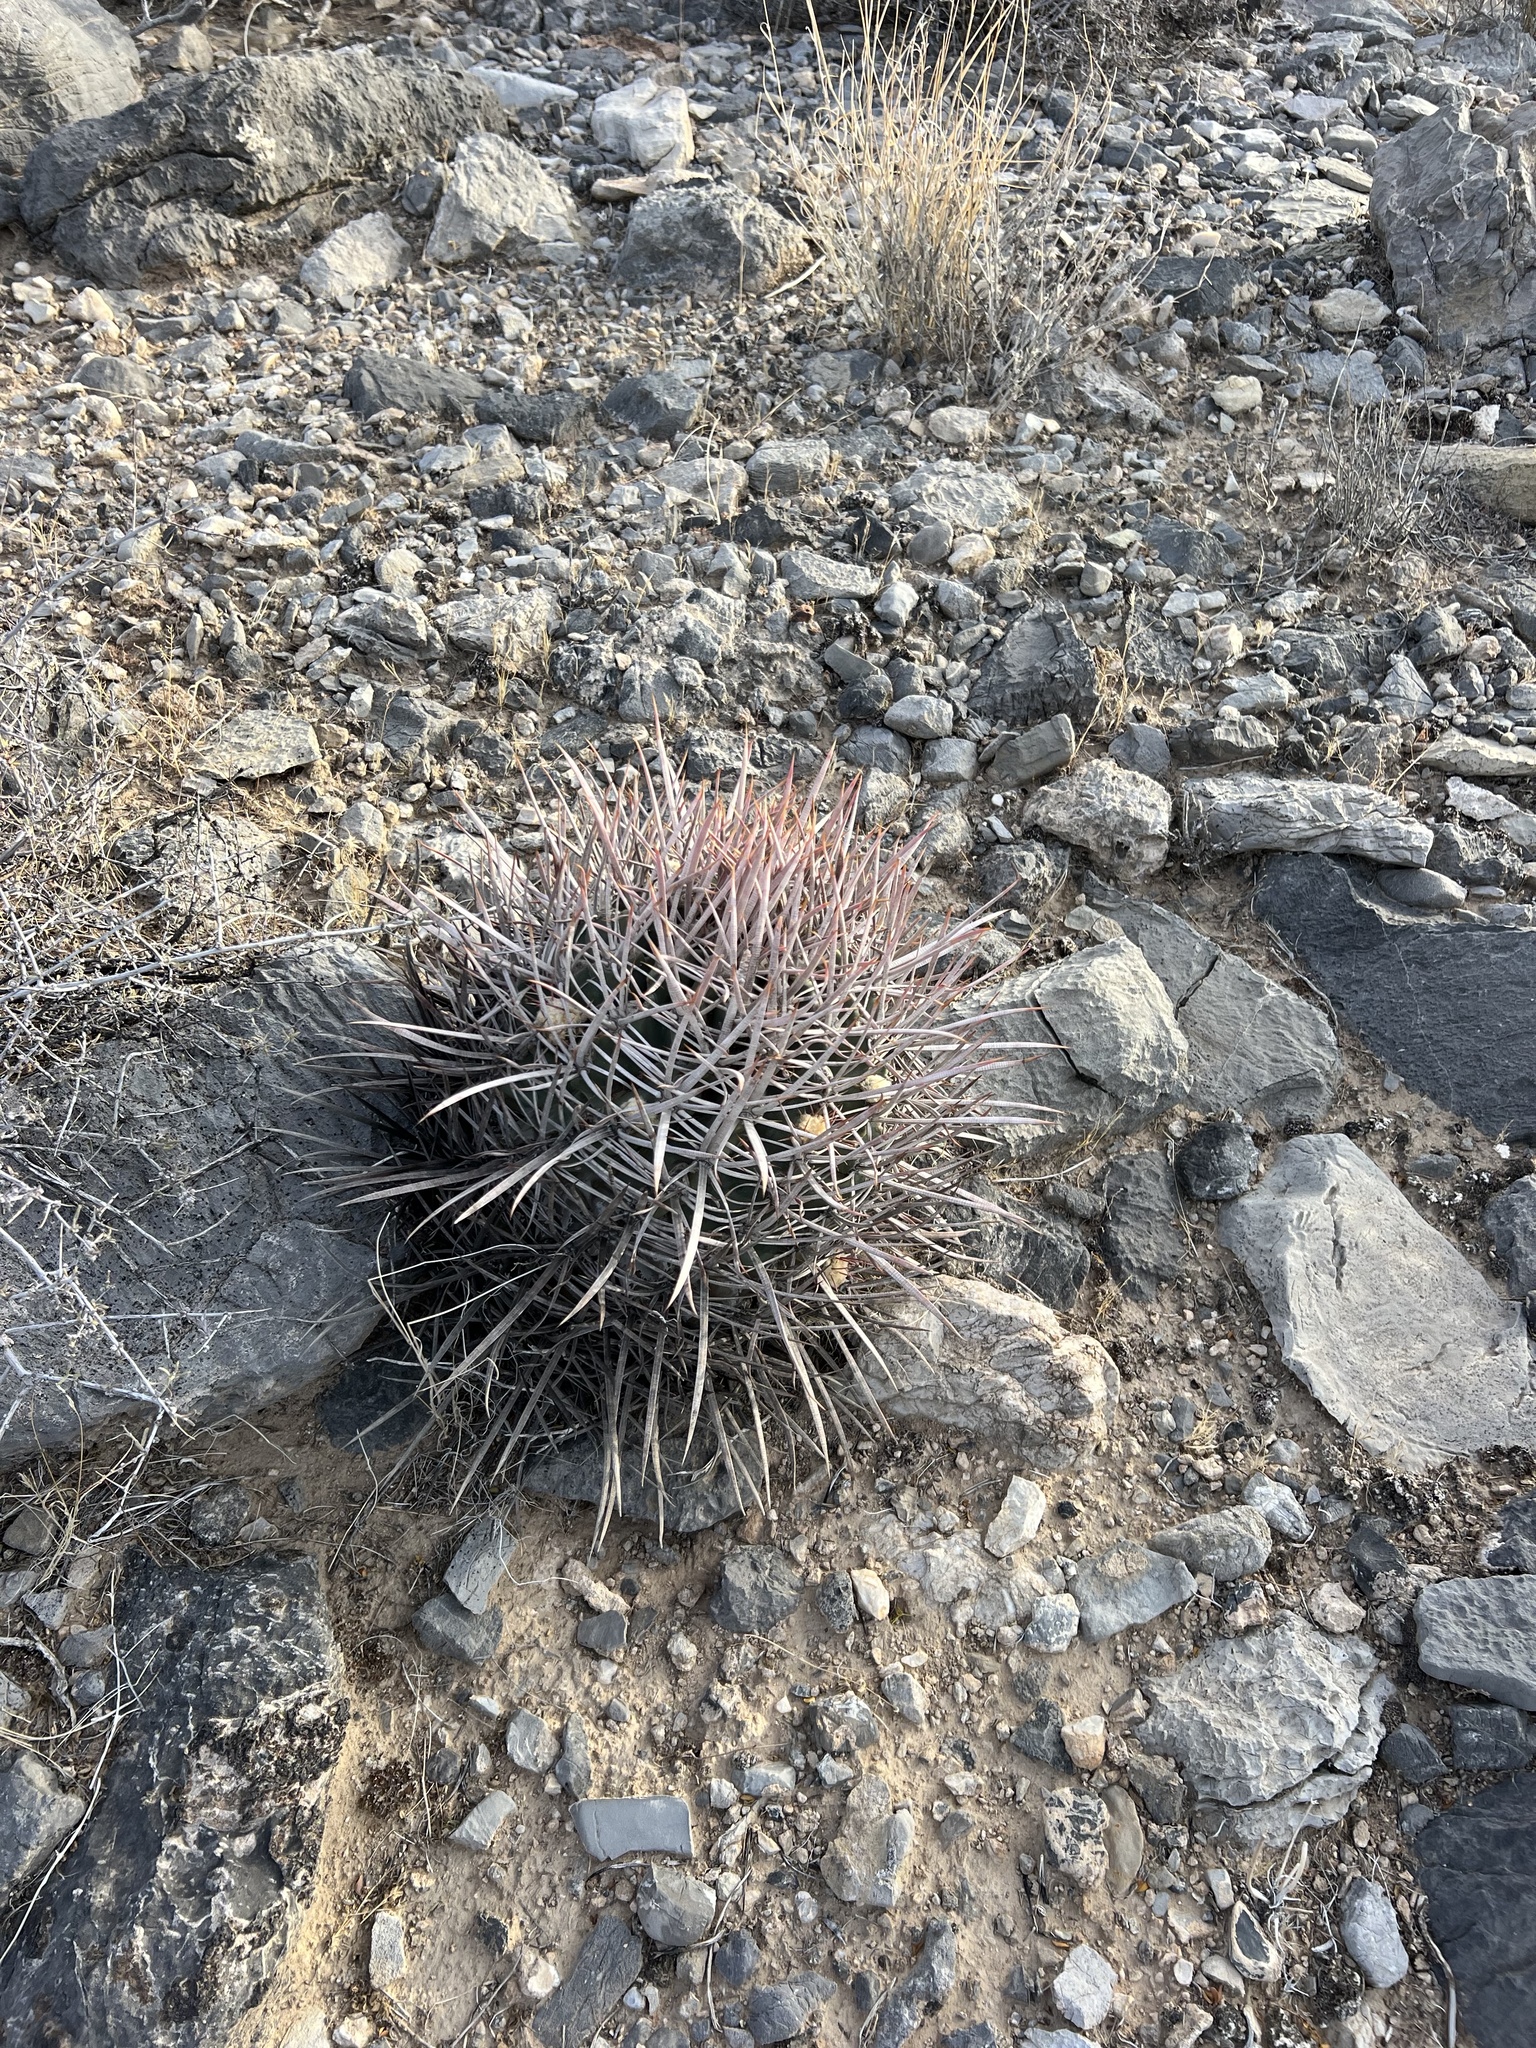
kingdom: Plantae
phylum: Tracheophyta
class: Magnoliopsida
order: Caryophyllales
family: Cactaceae
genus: Echinocactus
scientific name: Echinocactus polycephalus
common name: Cottontop cactus
